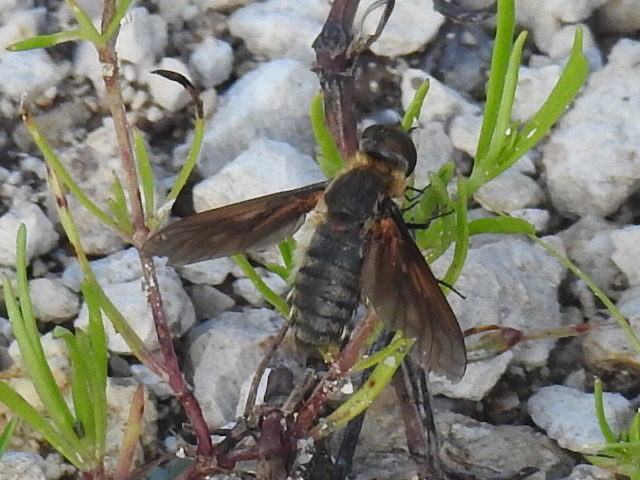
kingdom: Animalia
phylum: Arthropoda
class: Insecta
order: Diptera
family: Bombyliidae
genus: Poecilanthrax
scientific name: Poecilanthrax lucifer
